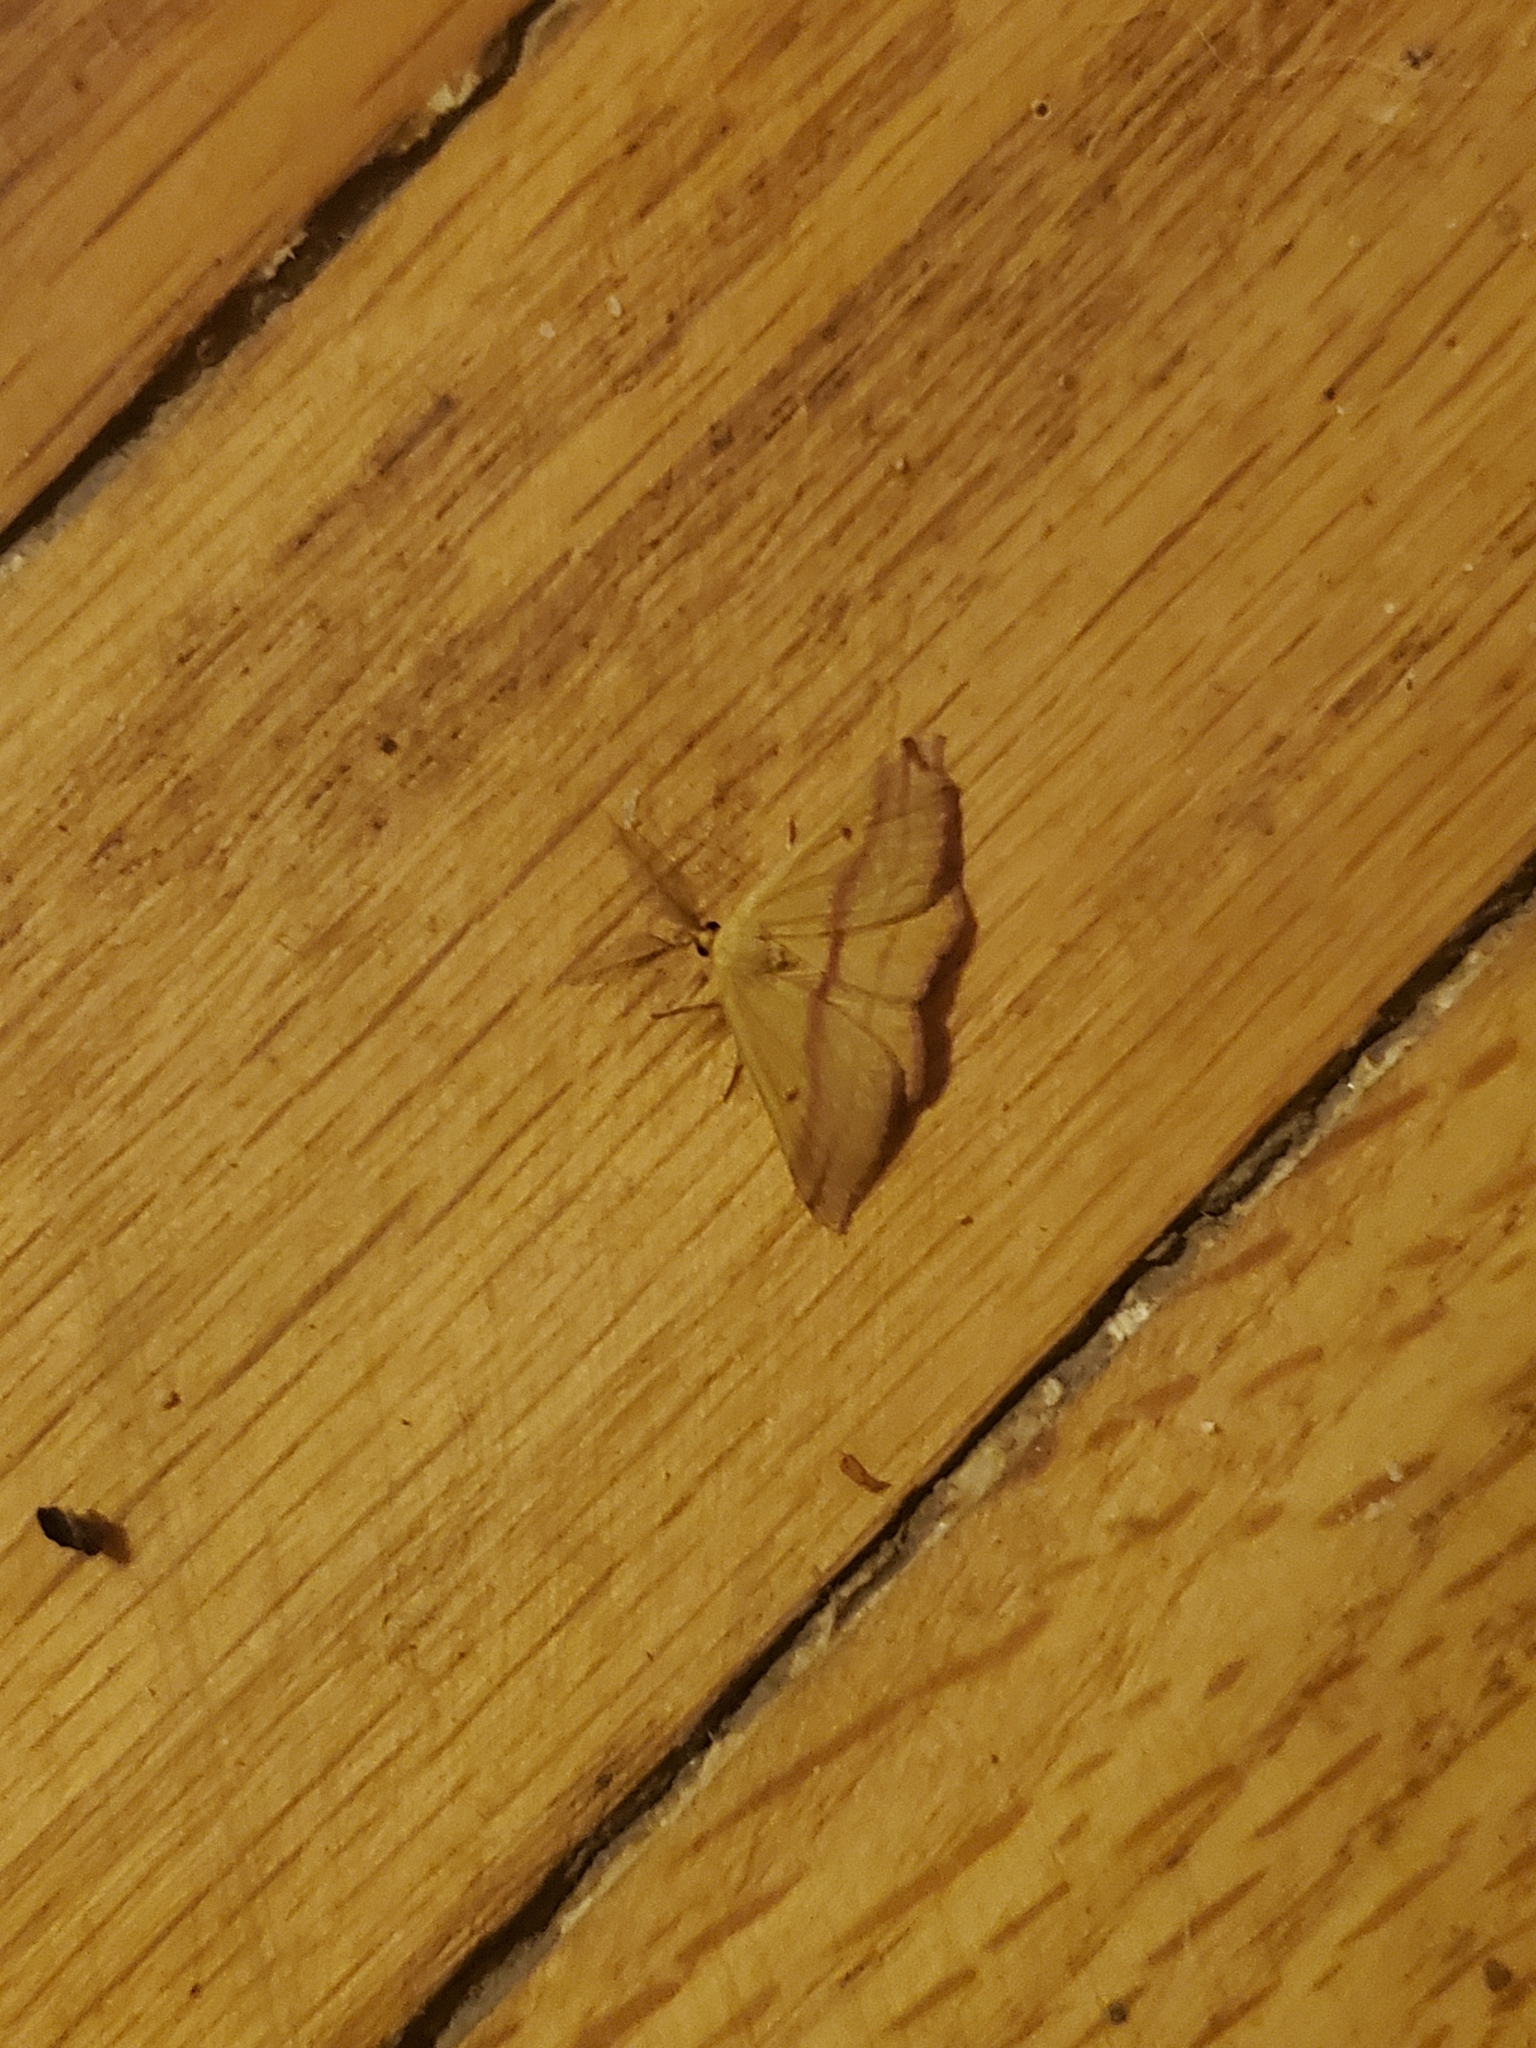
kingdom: Animalia
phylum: Arthropoda
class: Insecta
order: Lepidoptera
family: Geometridae
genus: Haematopis
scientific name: Haematopis grataria
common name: Chickweed geometer
